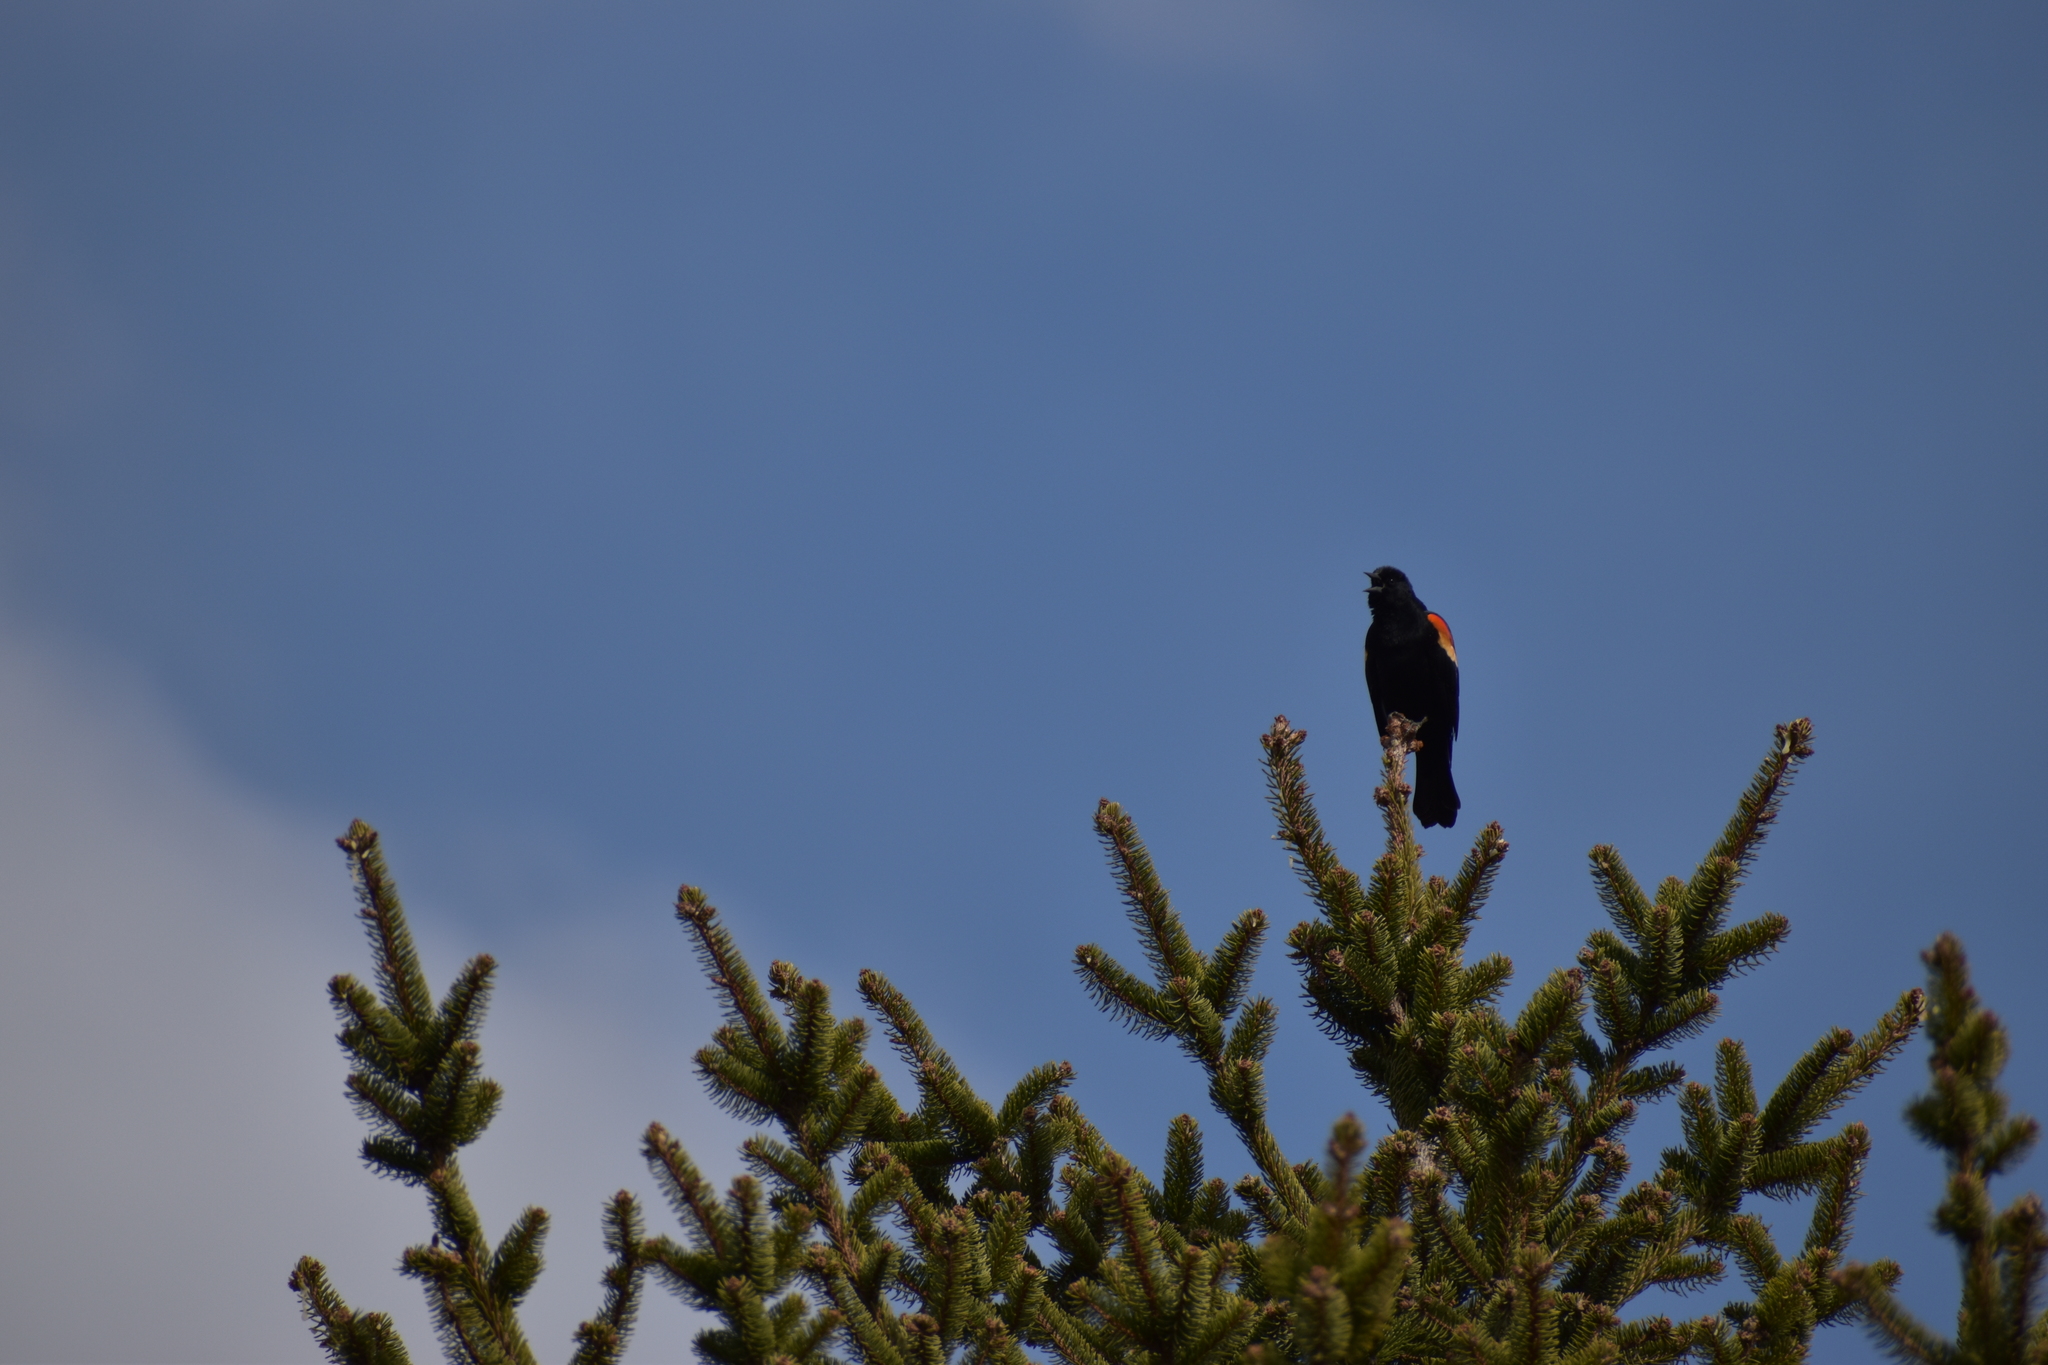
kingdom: Animalia
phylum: Chordata
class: Aves
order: Passeriformes
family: Icteridae
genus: Agelaius
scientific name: Agelaius phoeniceus
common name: Red-winged blackbird
